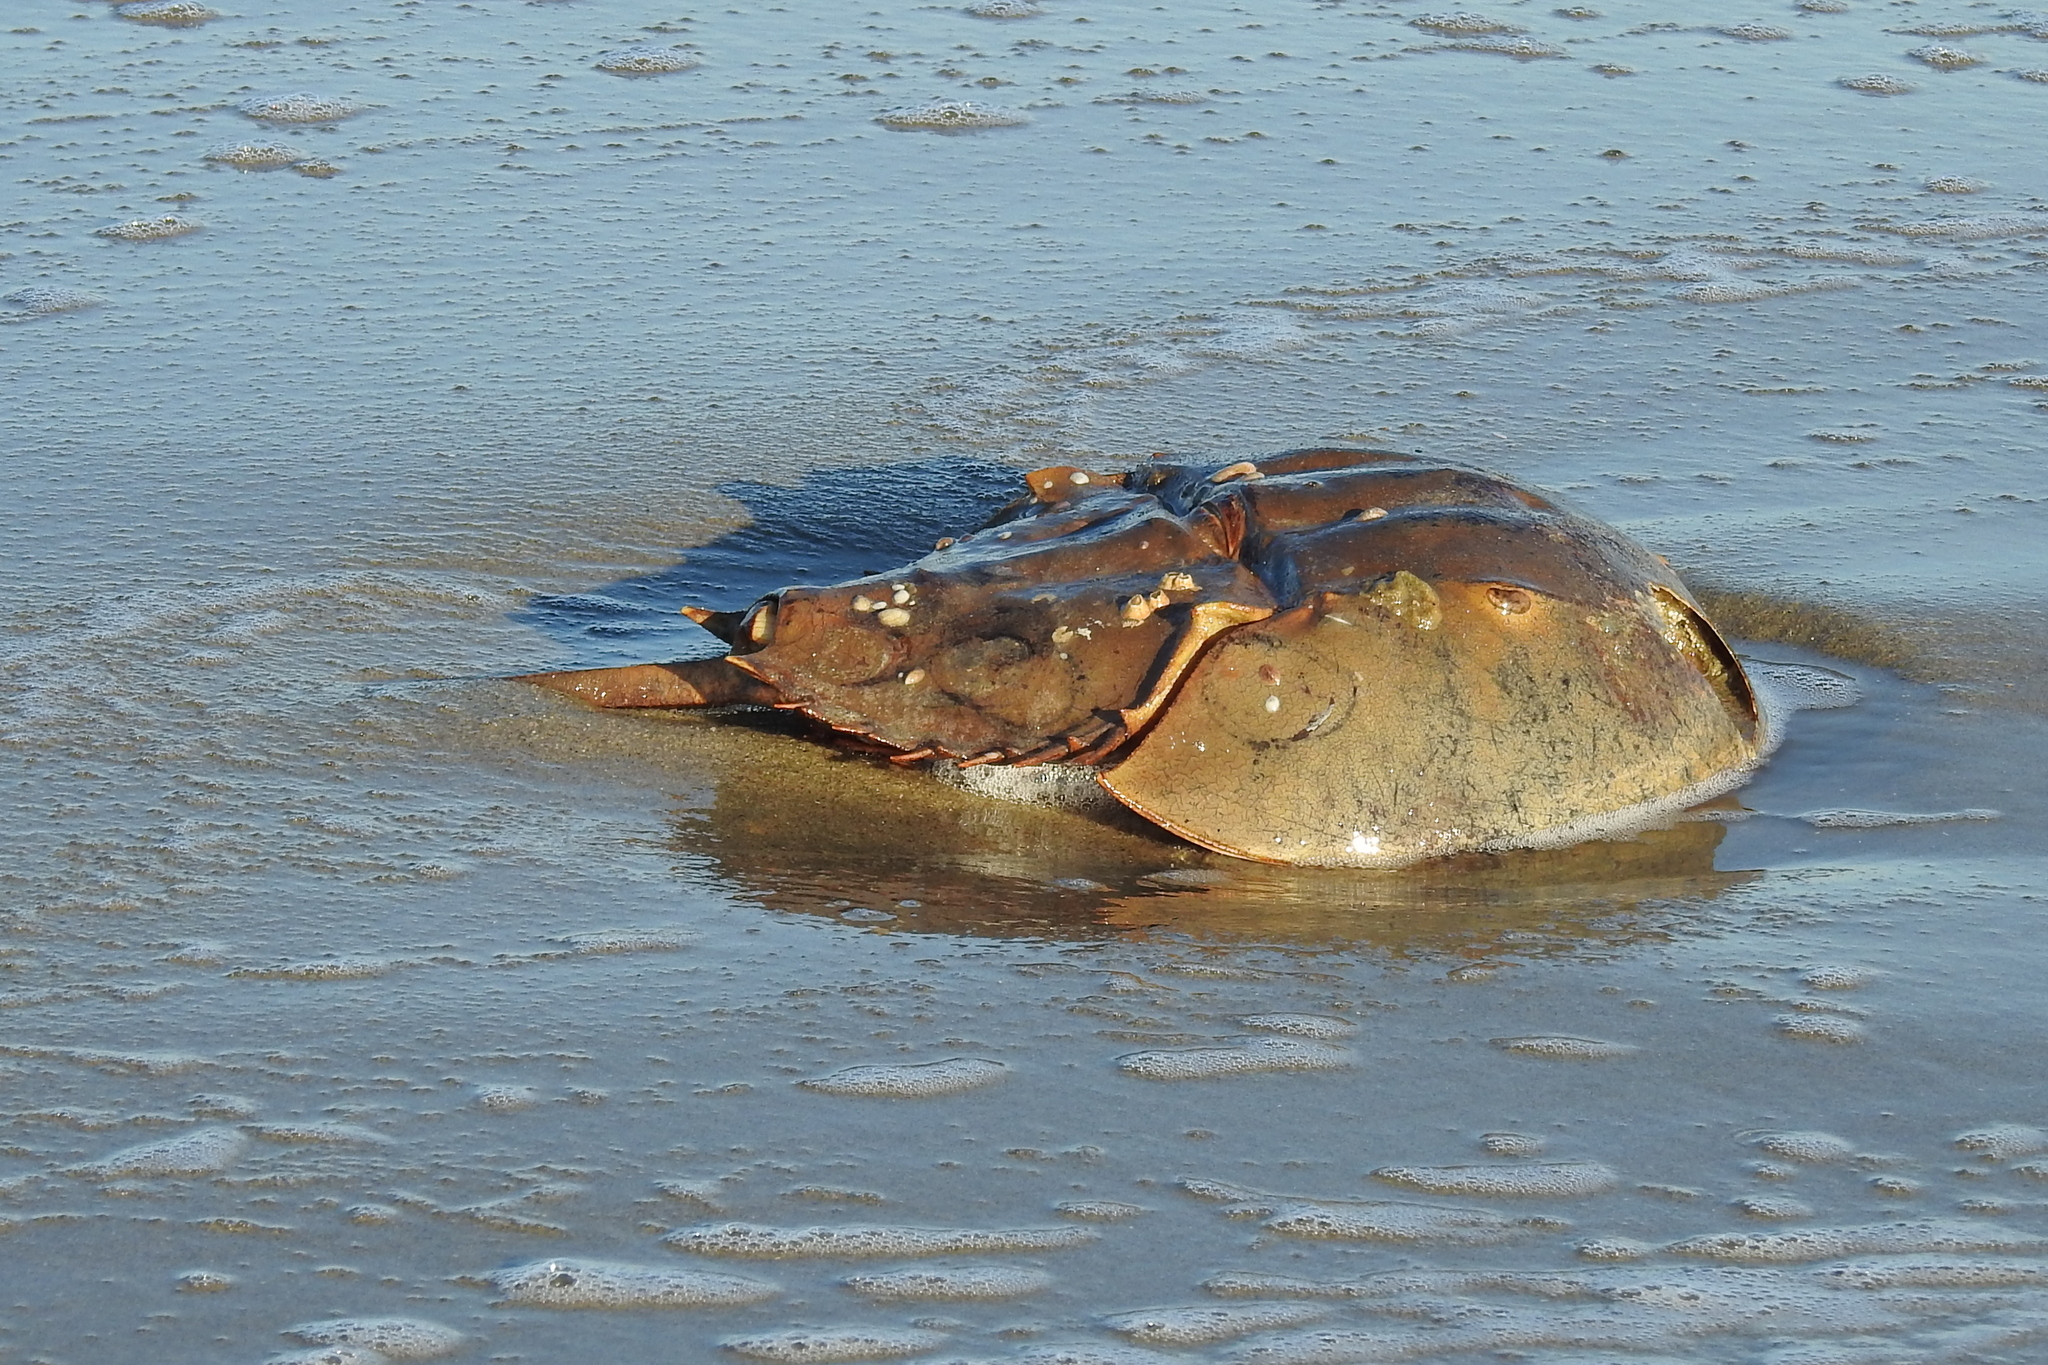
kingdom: Animalia
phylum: Arthropoda
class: Merostomata
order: Xiphosurida
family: Limulidae
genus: Limulus
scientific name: Limulus polyphemus
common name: Horseshoe crab
